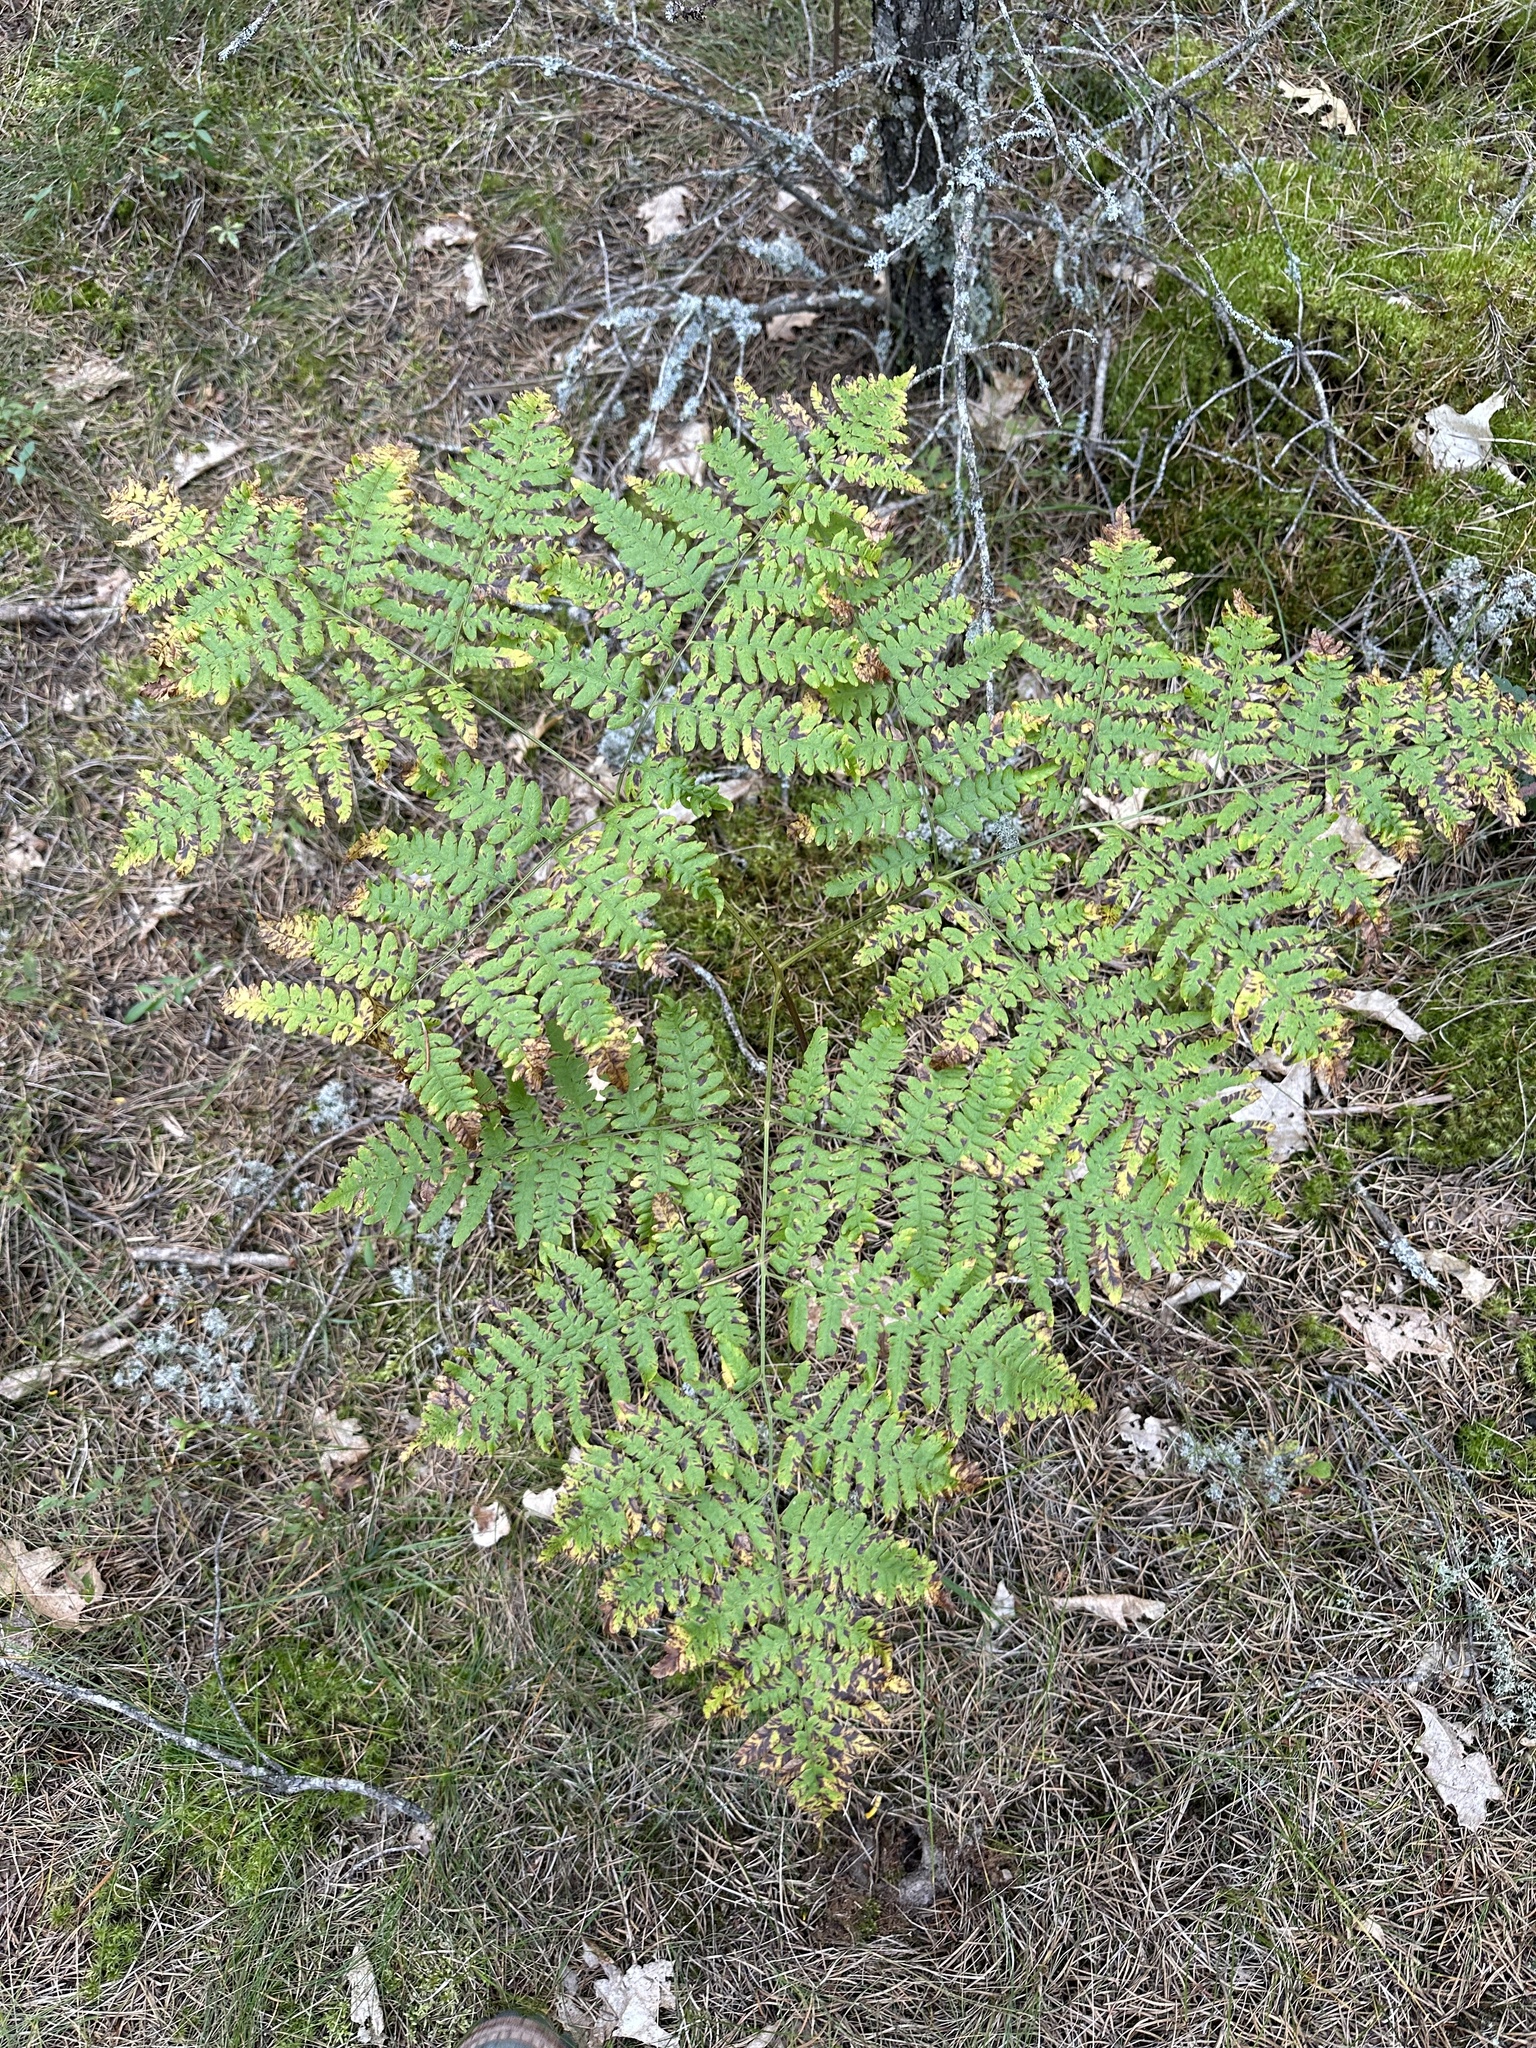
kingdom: Plantae
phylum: Tracheophyta
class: Polypodiopsida
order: Polypodiales
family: Dennstaedtiaceae
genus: Pteridium
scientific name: Pteridium aquilinum
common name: Bracken
